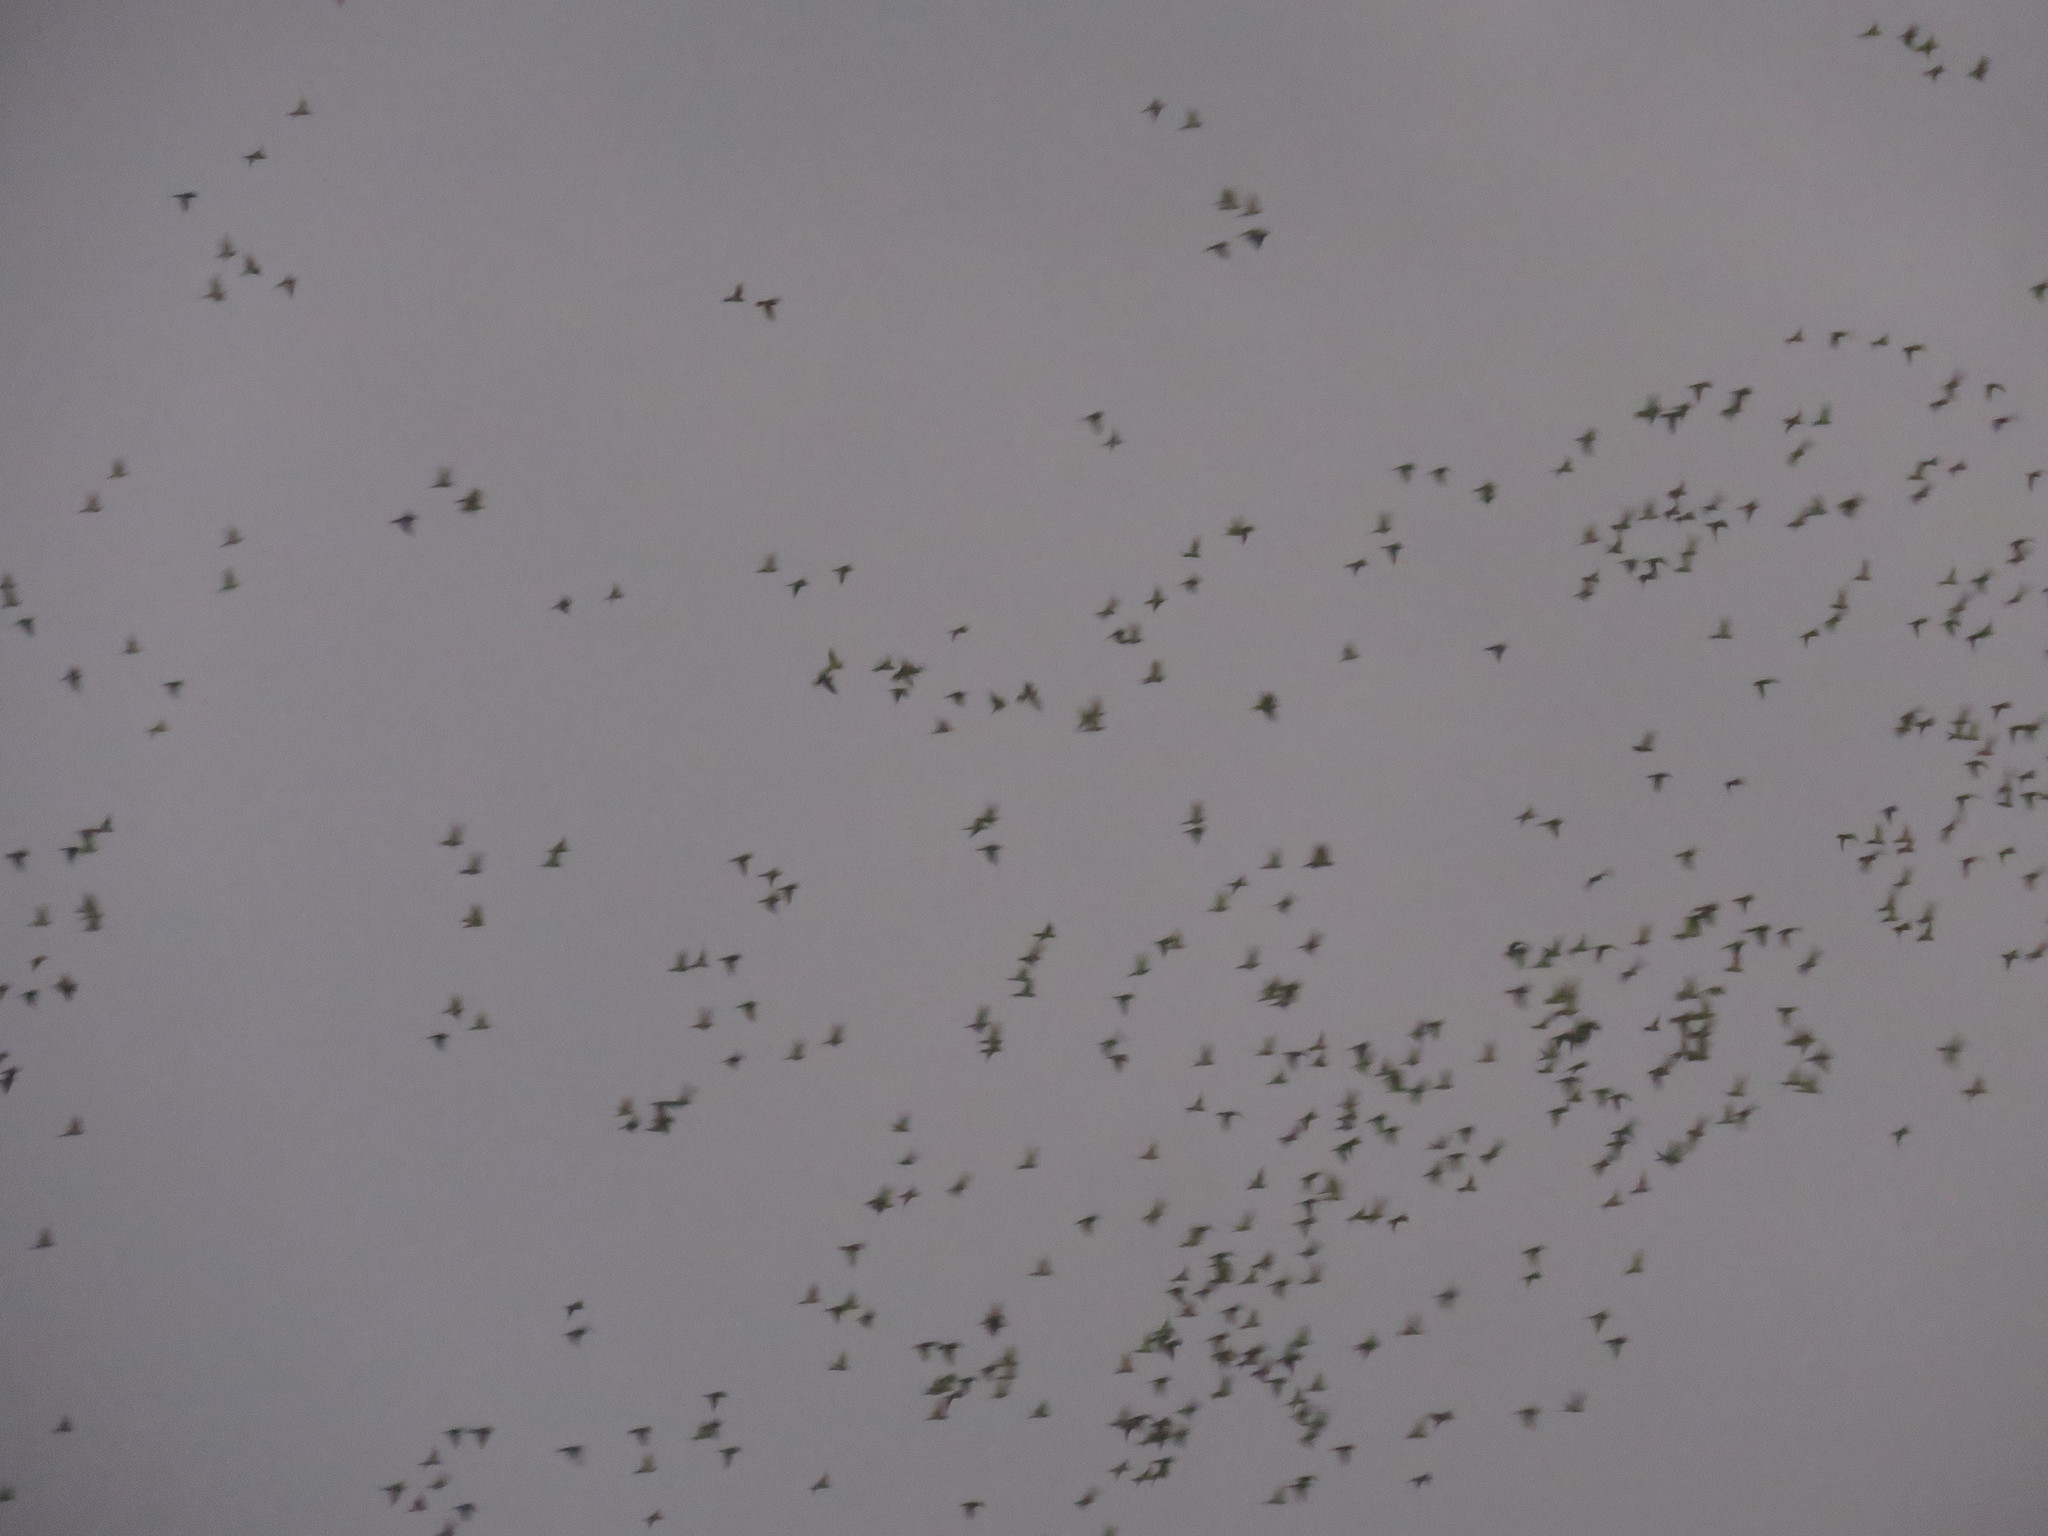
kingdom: Animalia
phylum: Chordata
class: Aves
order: Psittaciformes
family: Psittacidae
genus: Aratinga
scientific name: Aratinga mitrata
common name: Mitred parakeet
